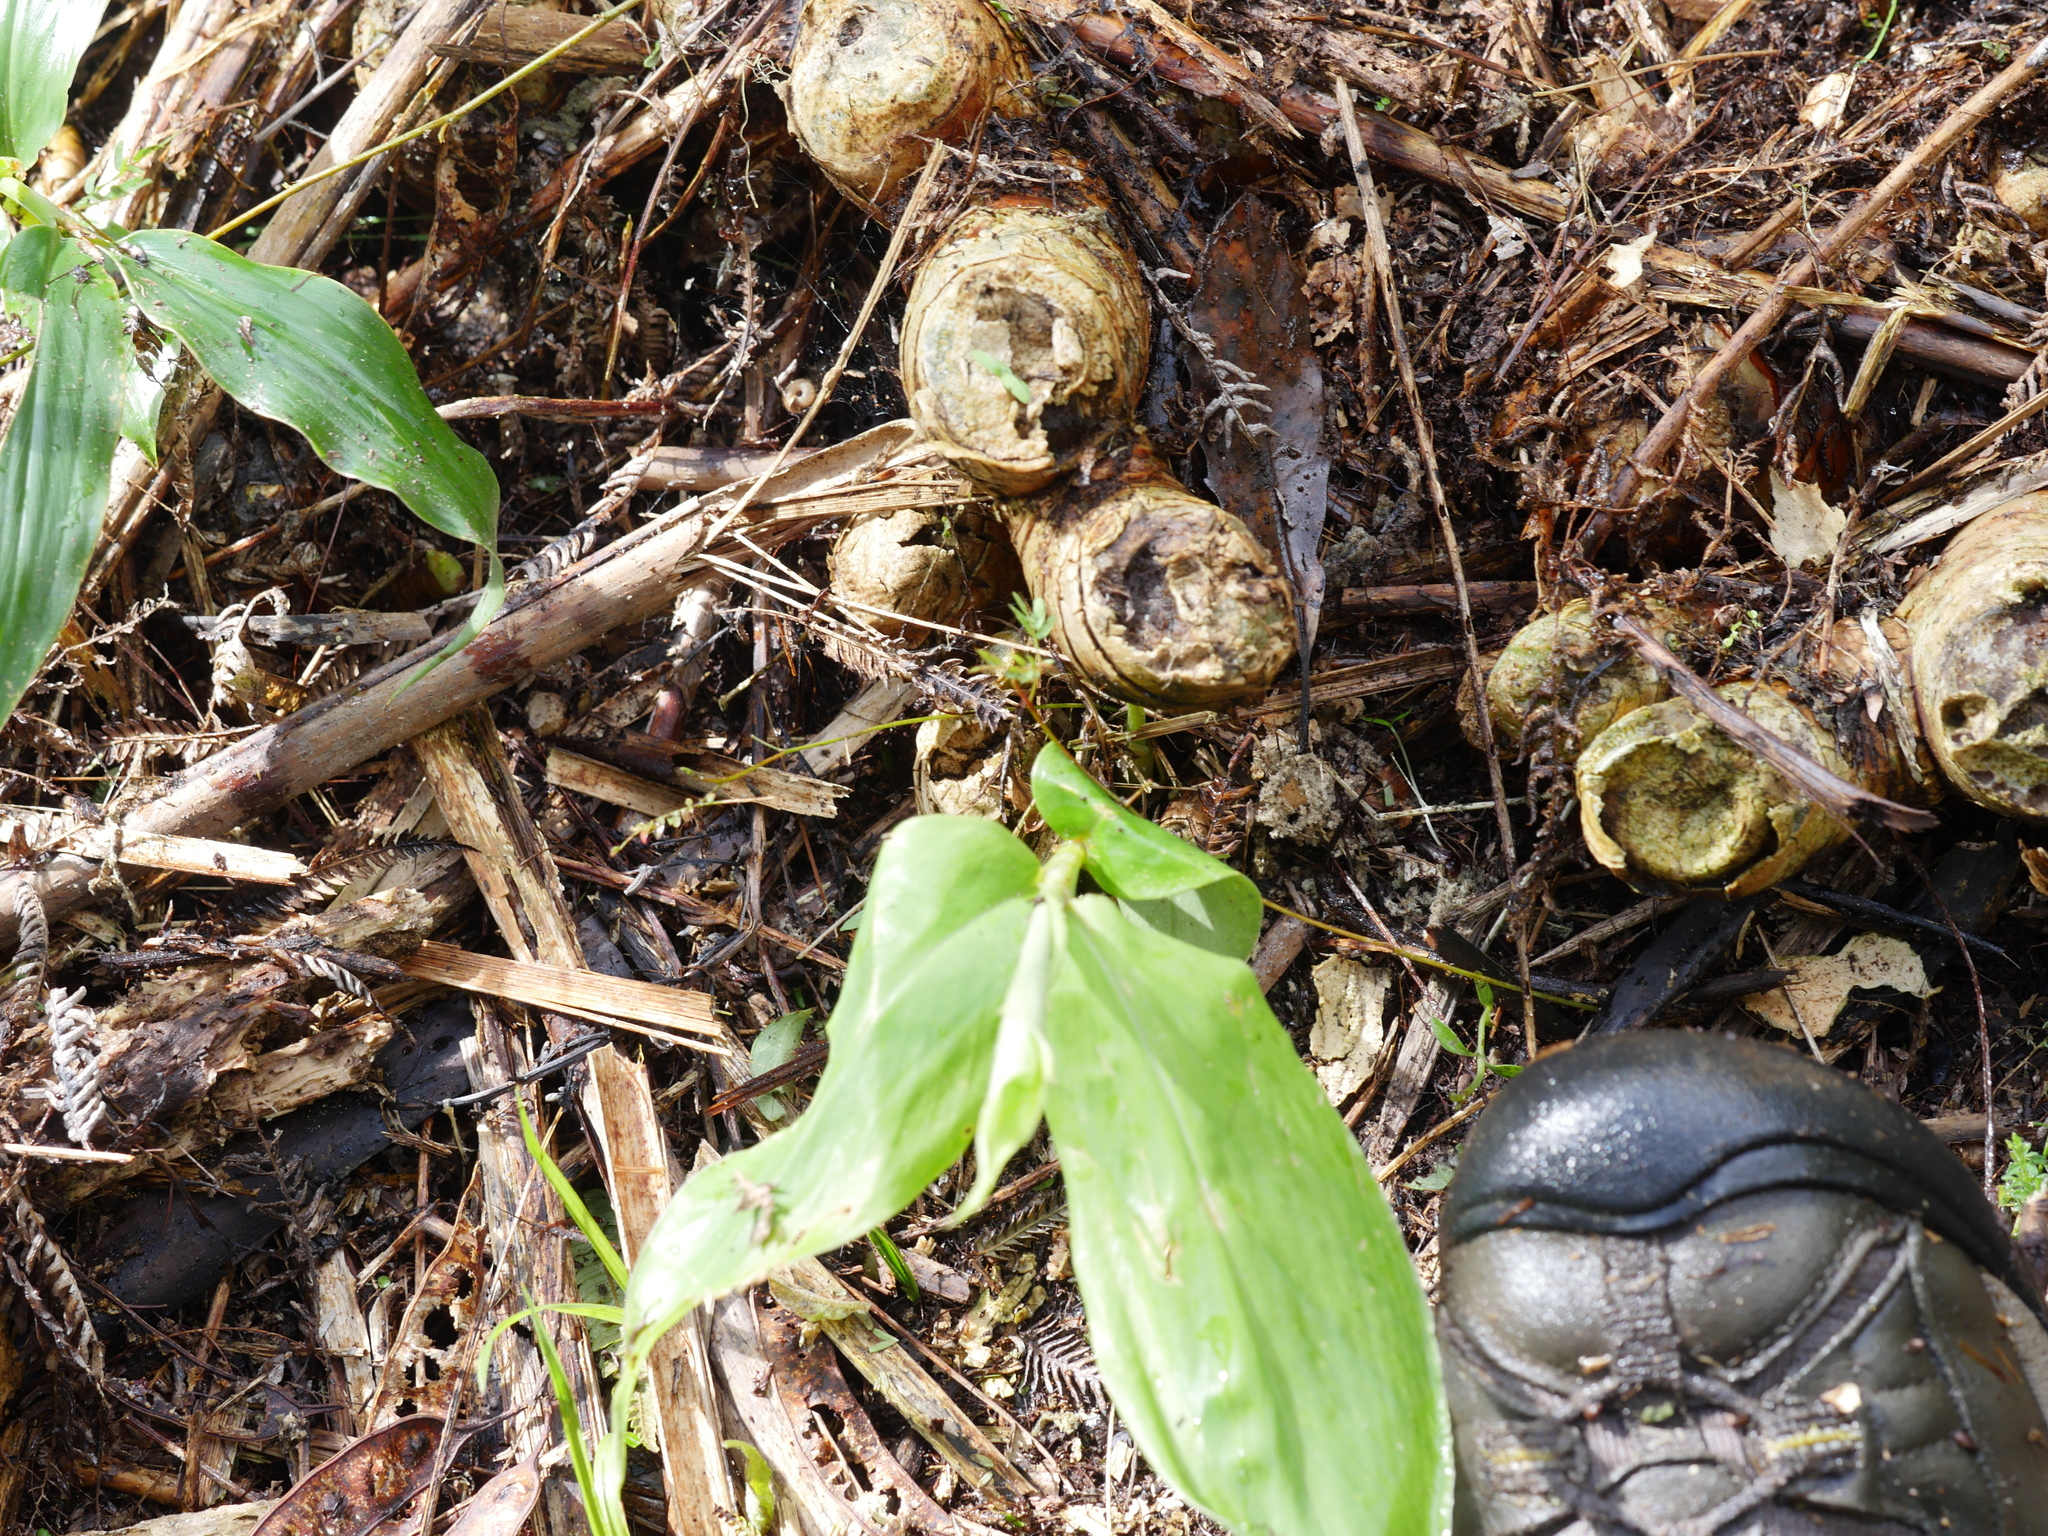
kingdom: Plantae
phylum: Tracheophyta
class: Liliopsida
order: Zingiberales
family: Zingiberaceae
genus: Hedychium
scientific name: Hedychium gardnerianum
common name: Himalayan ginger
